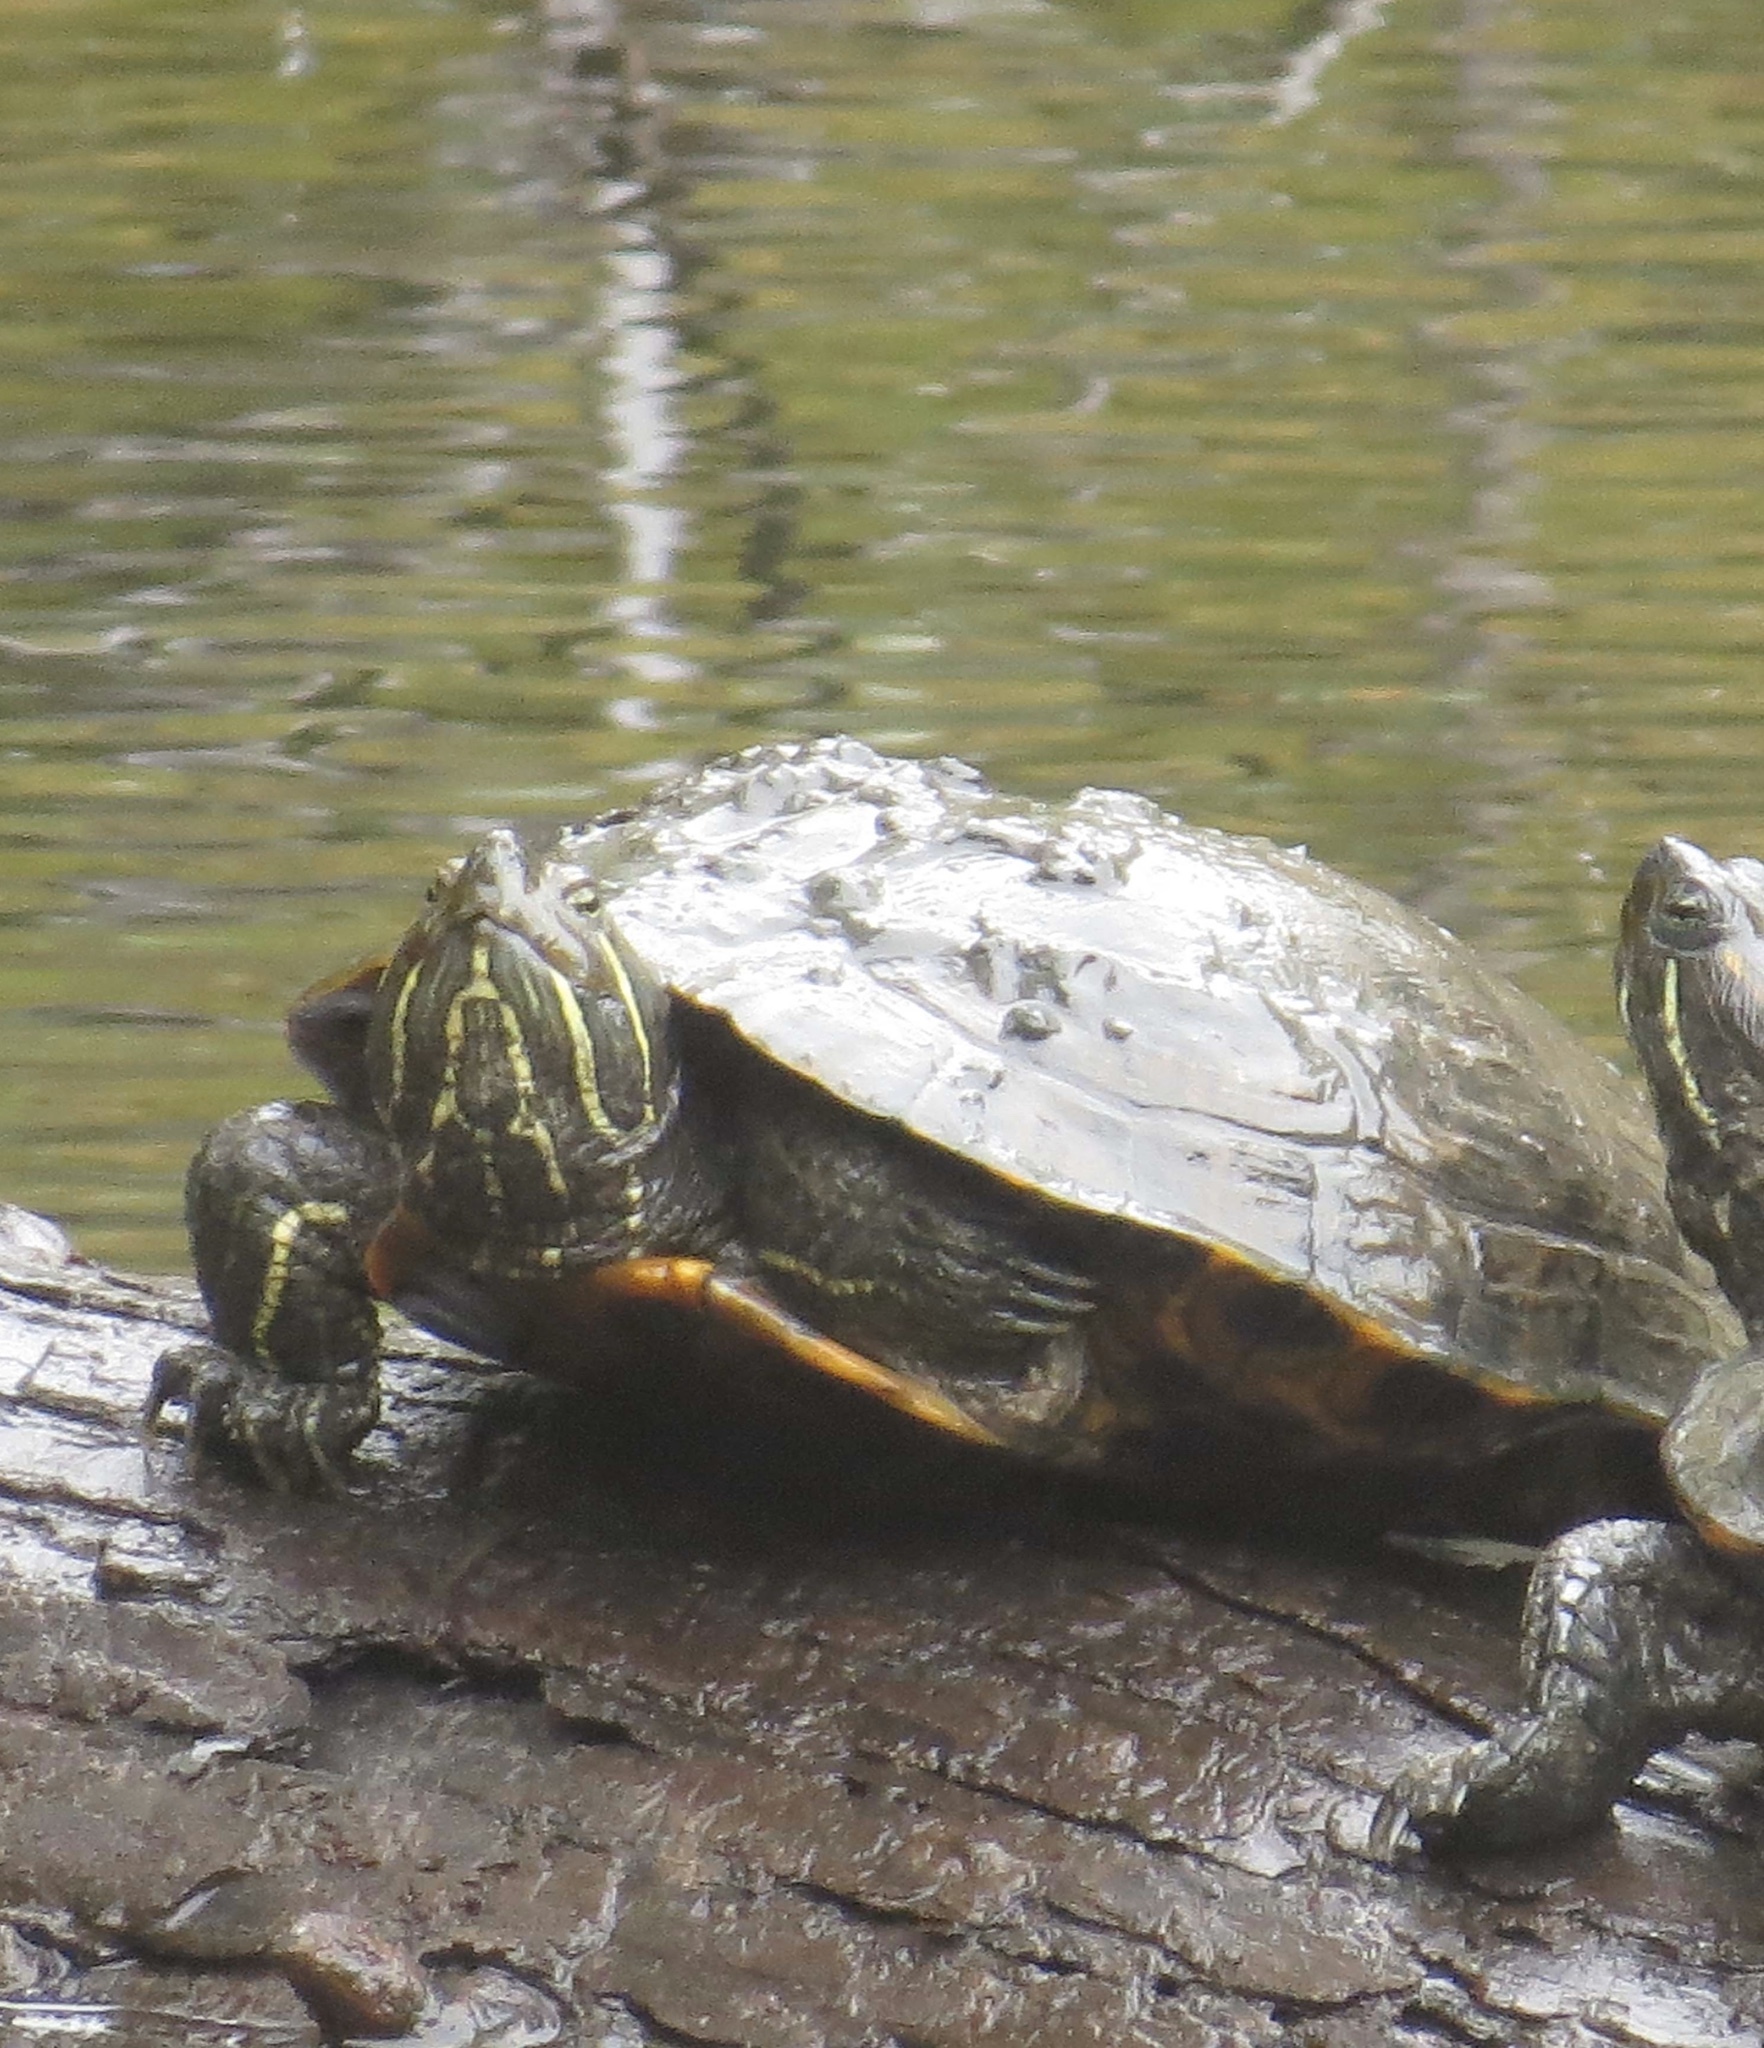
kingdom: Animalia
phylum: Chordata
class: Testudines
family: Emydidae
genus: Trachemys
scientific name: Trachemys scripta
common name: Slider
